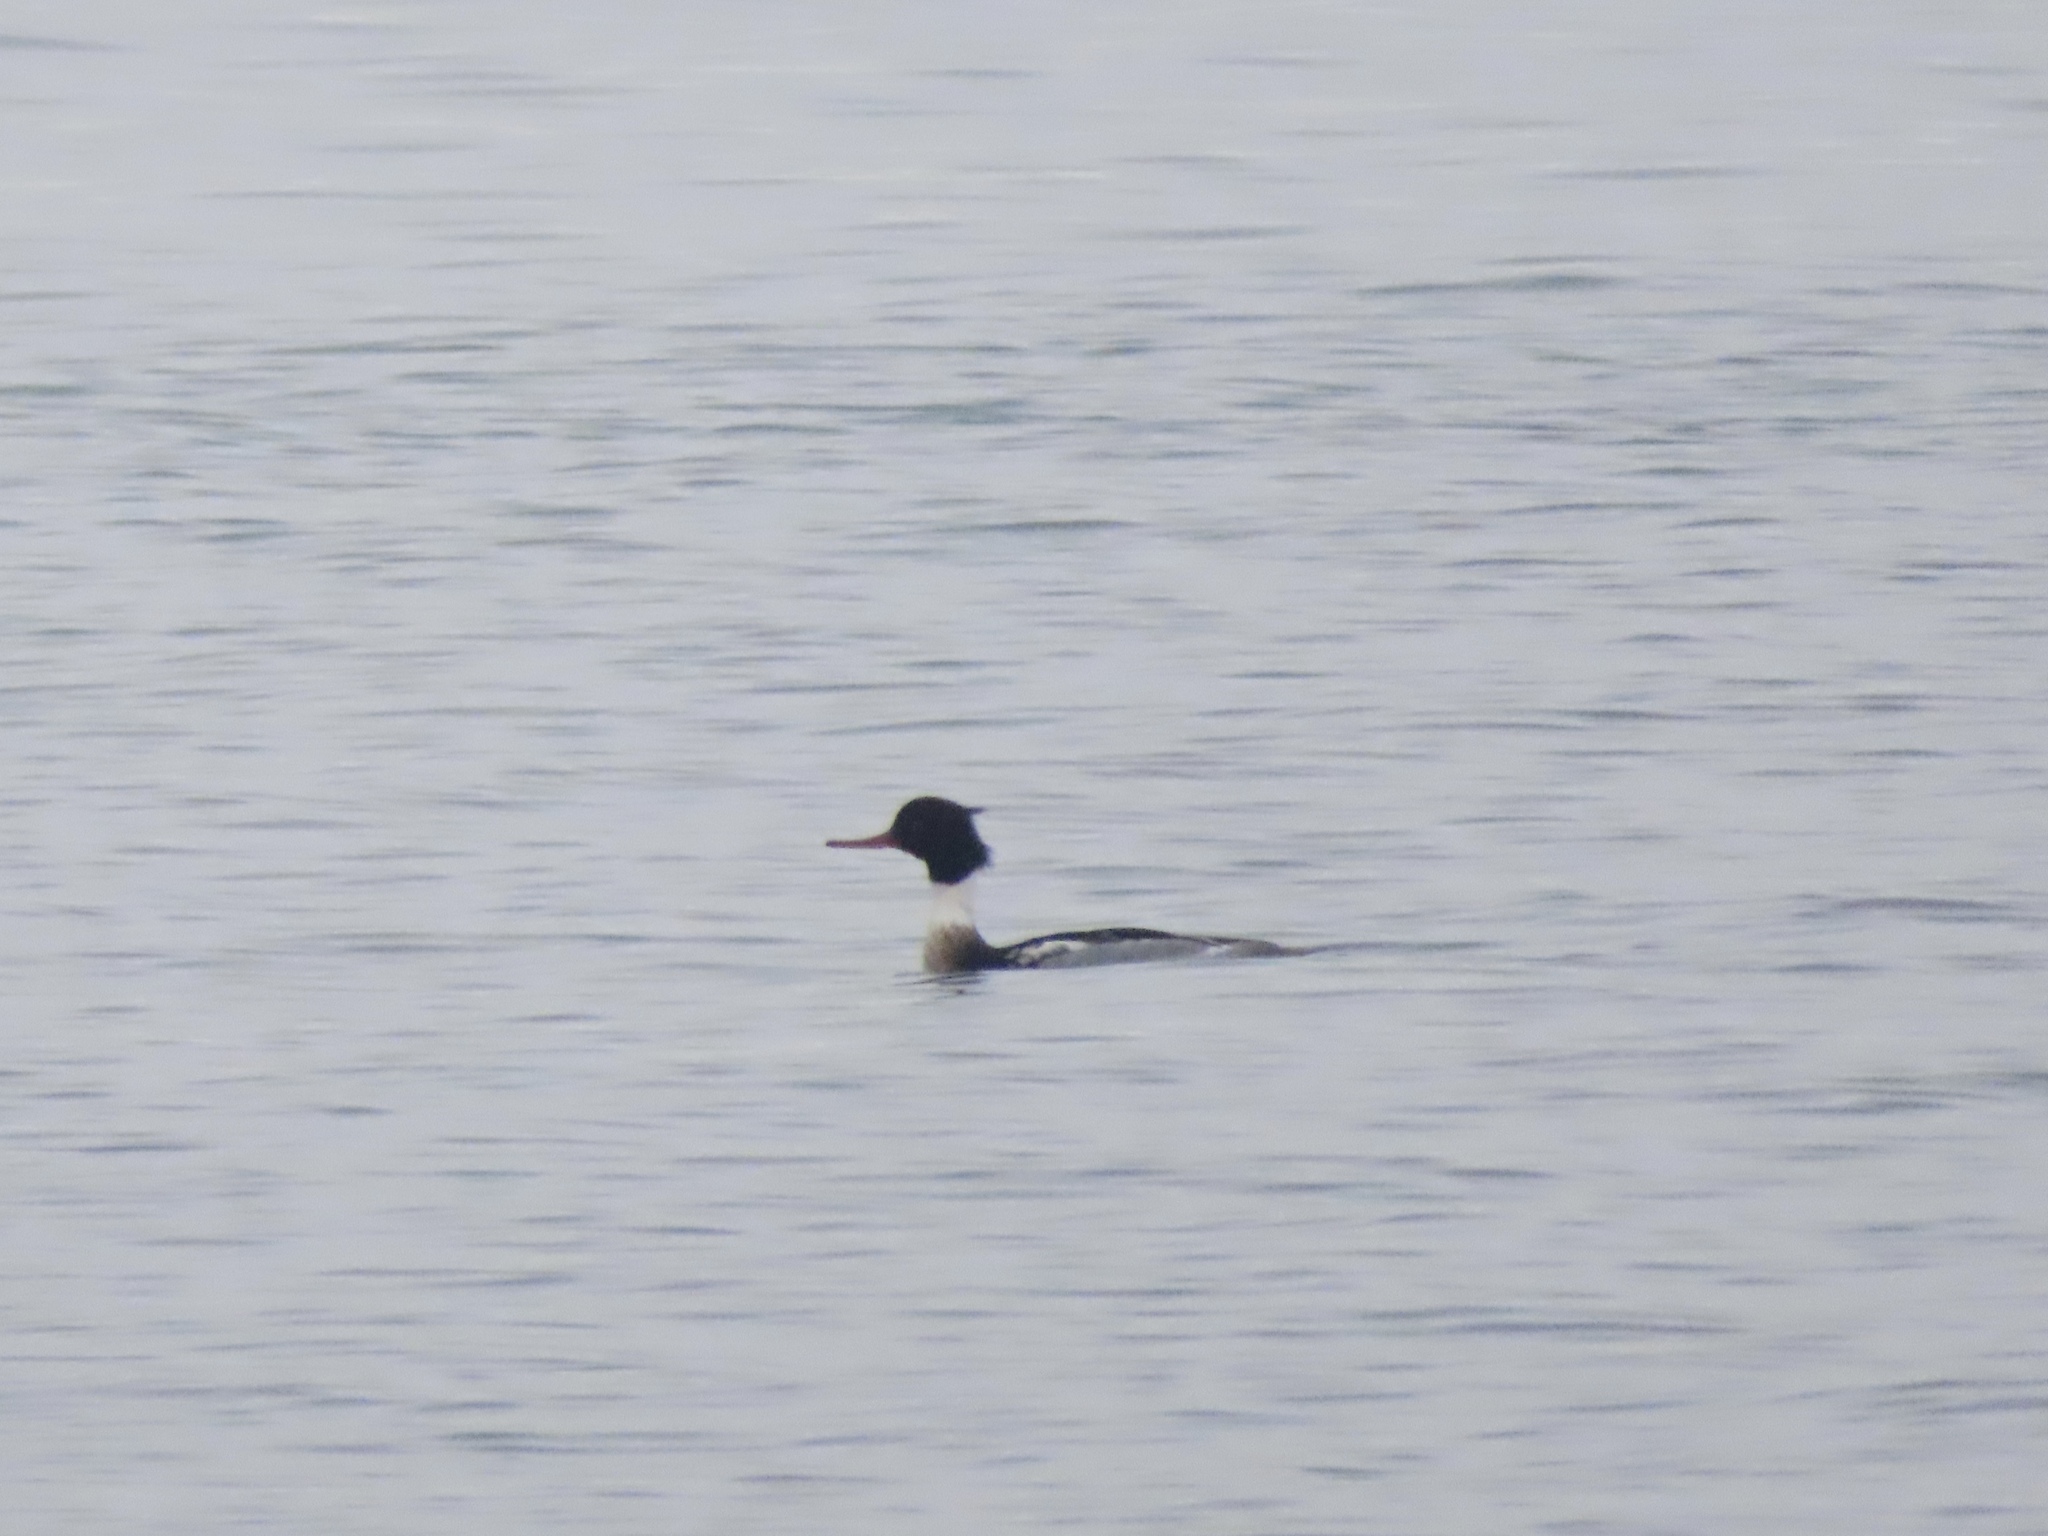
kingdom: Animalia
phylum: Chordata
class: Aves
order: Anseriformes
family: Anatidae
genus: Mergus
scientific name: Mergus serrator
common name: Red-breasted merganser
